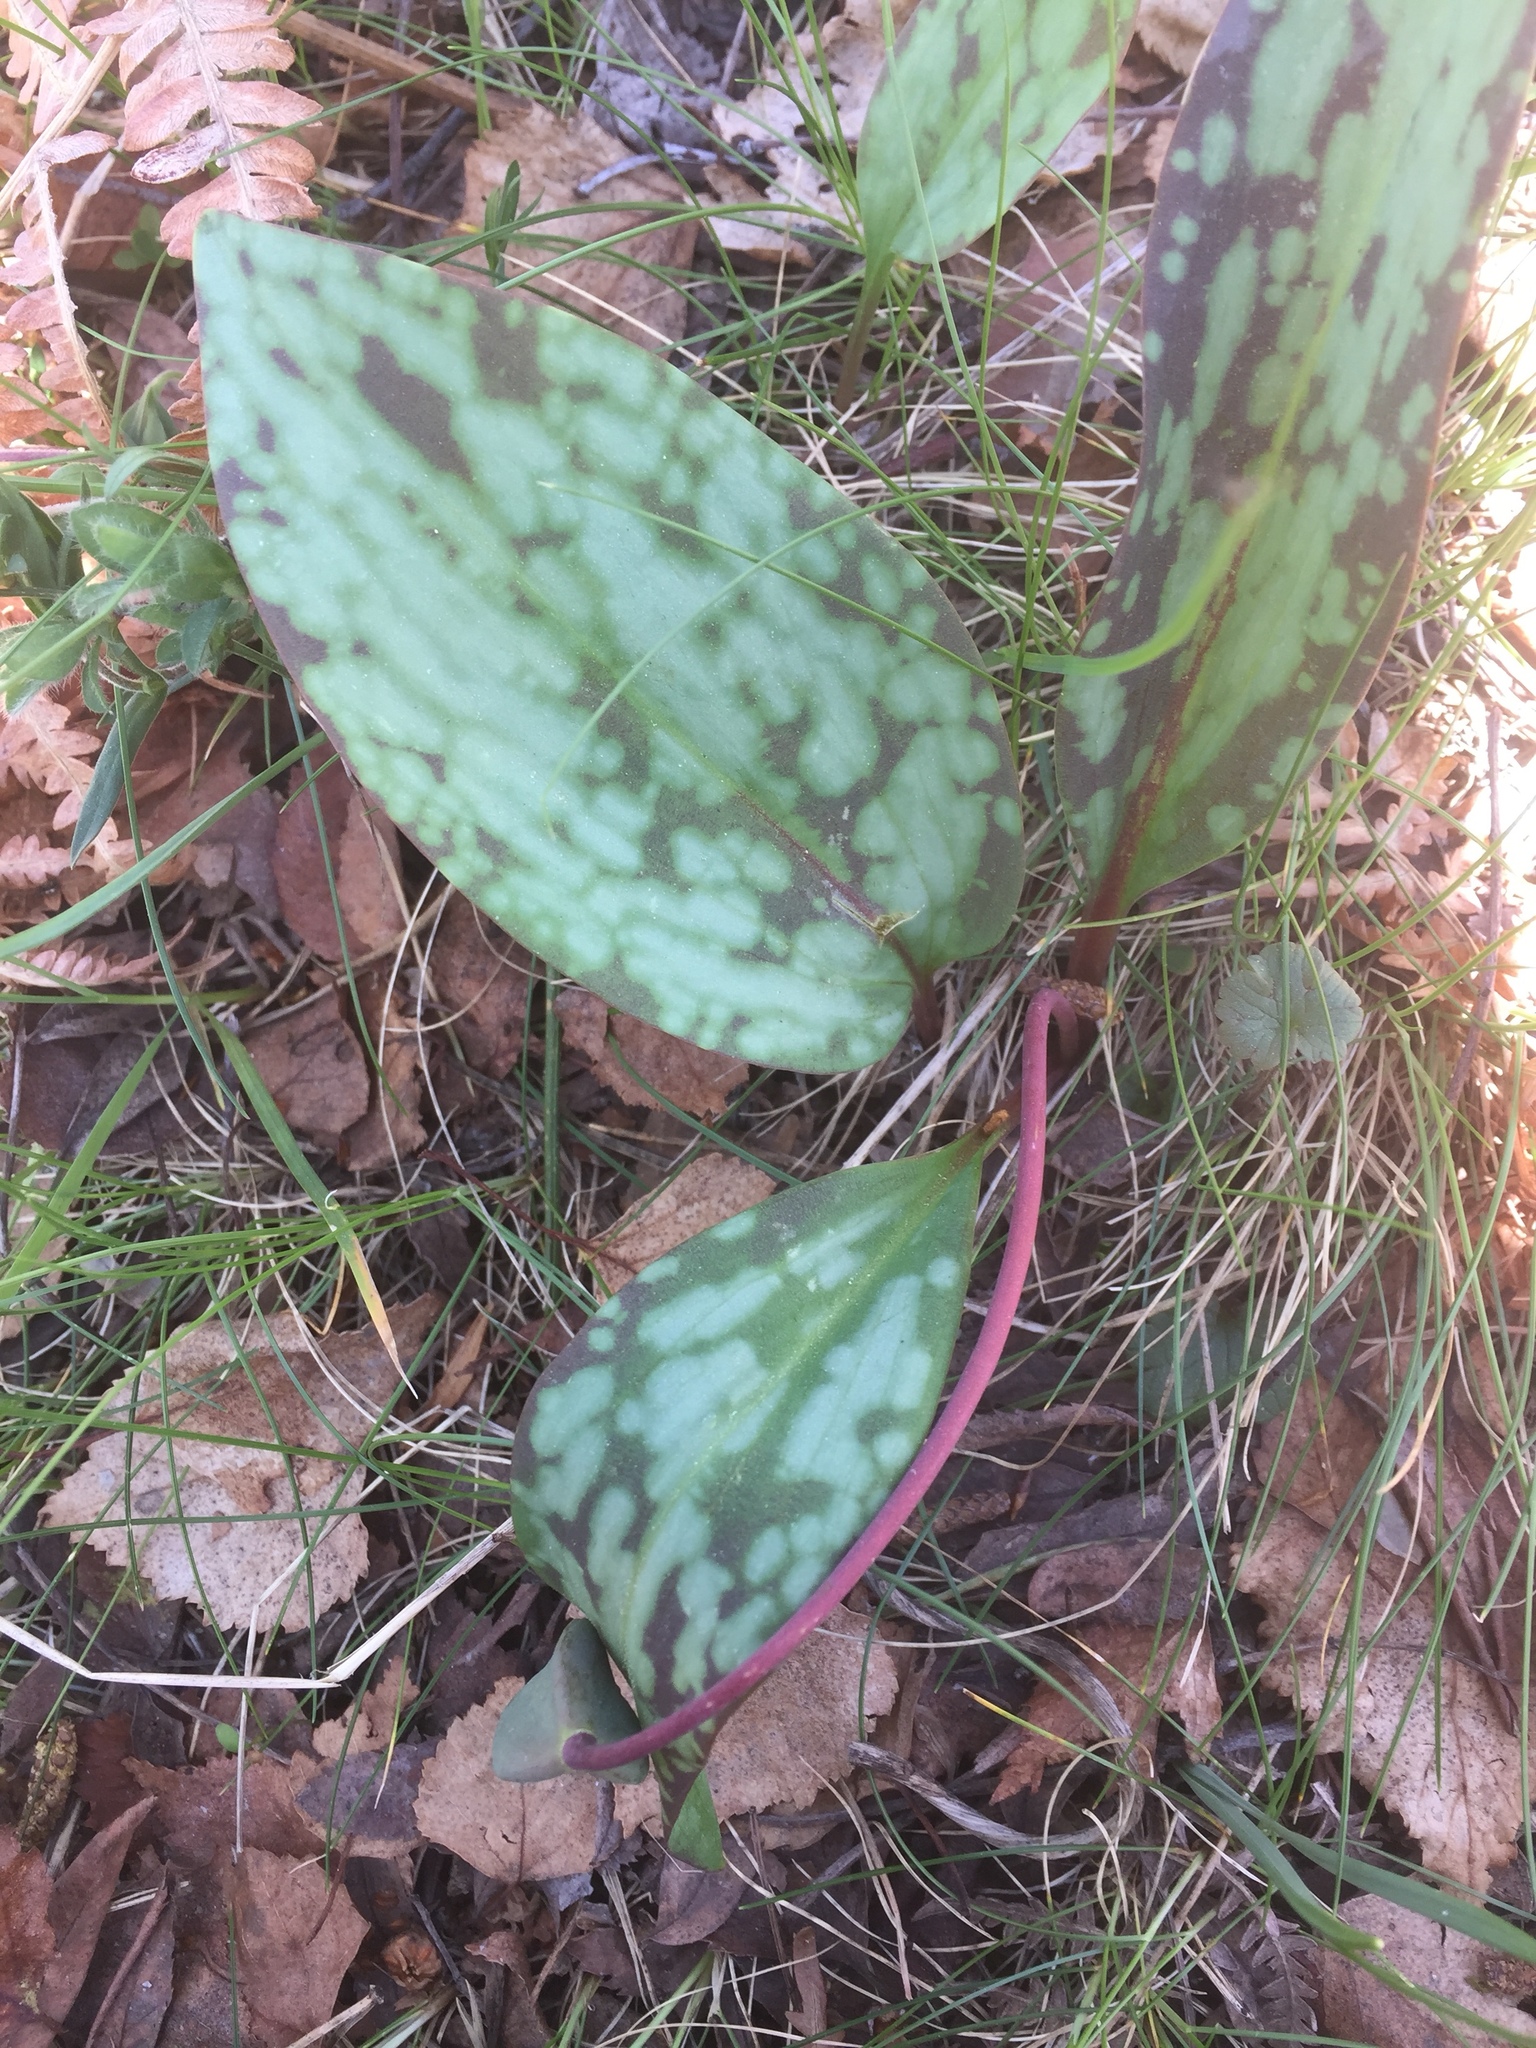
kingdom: Plantae
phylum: Tracheophyta
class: Liliopsida
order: Liliales
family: Liliaceae
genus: Erythronium
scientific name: Erythronium dens-canis
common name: Dog's-tooth-violet
